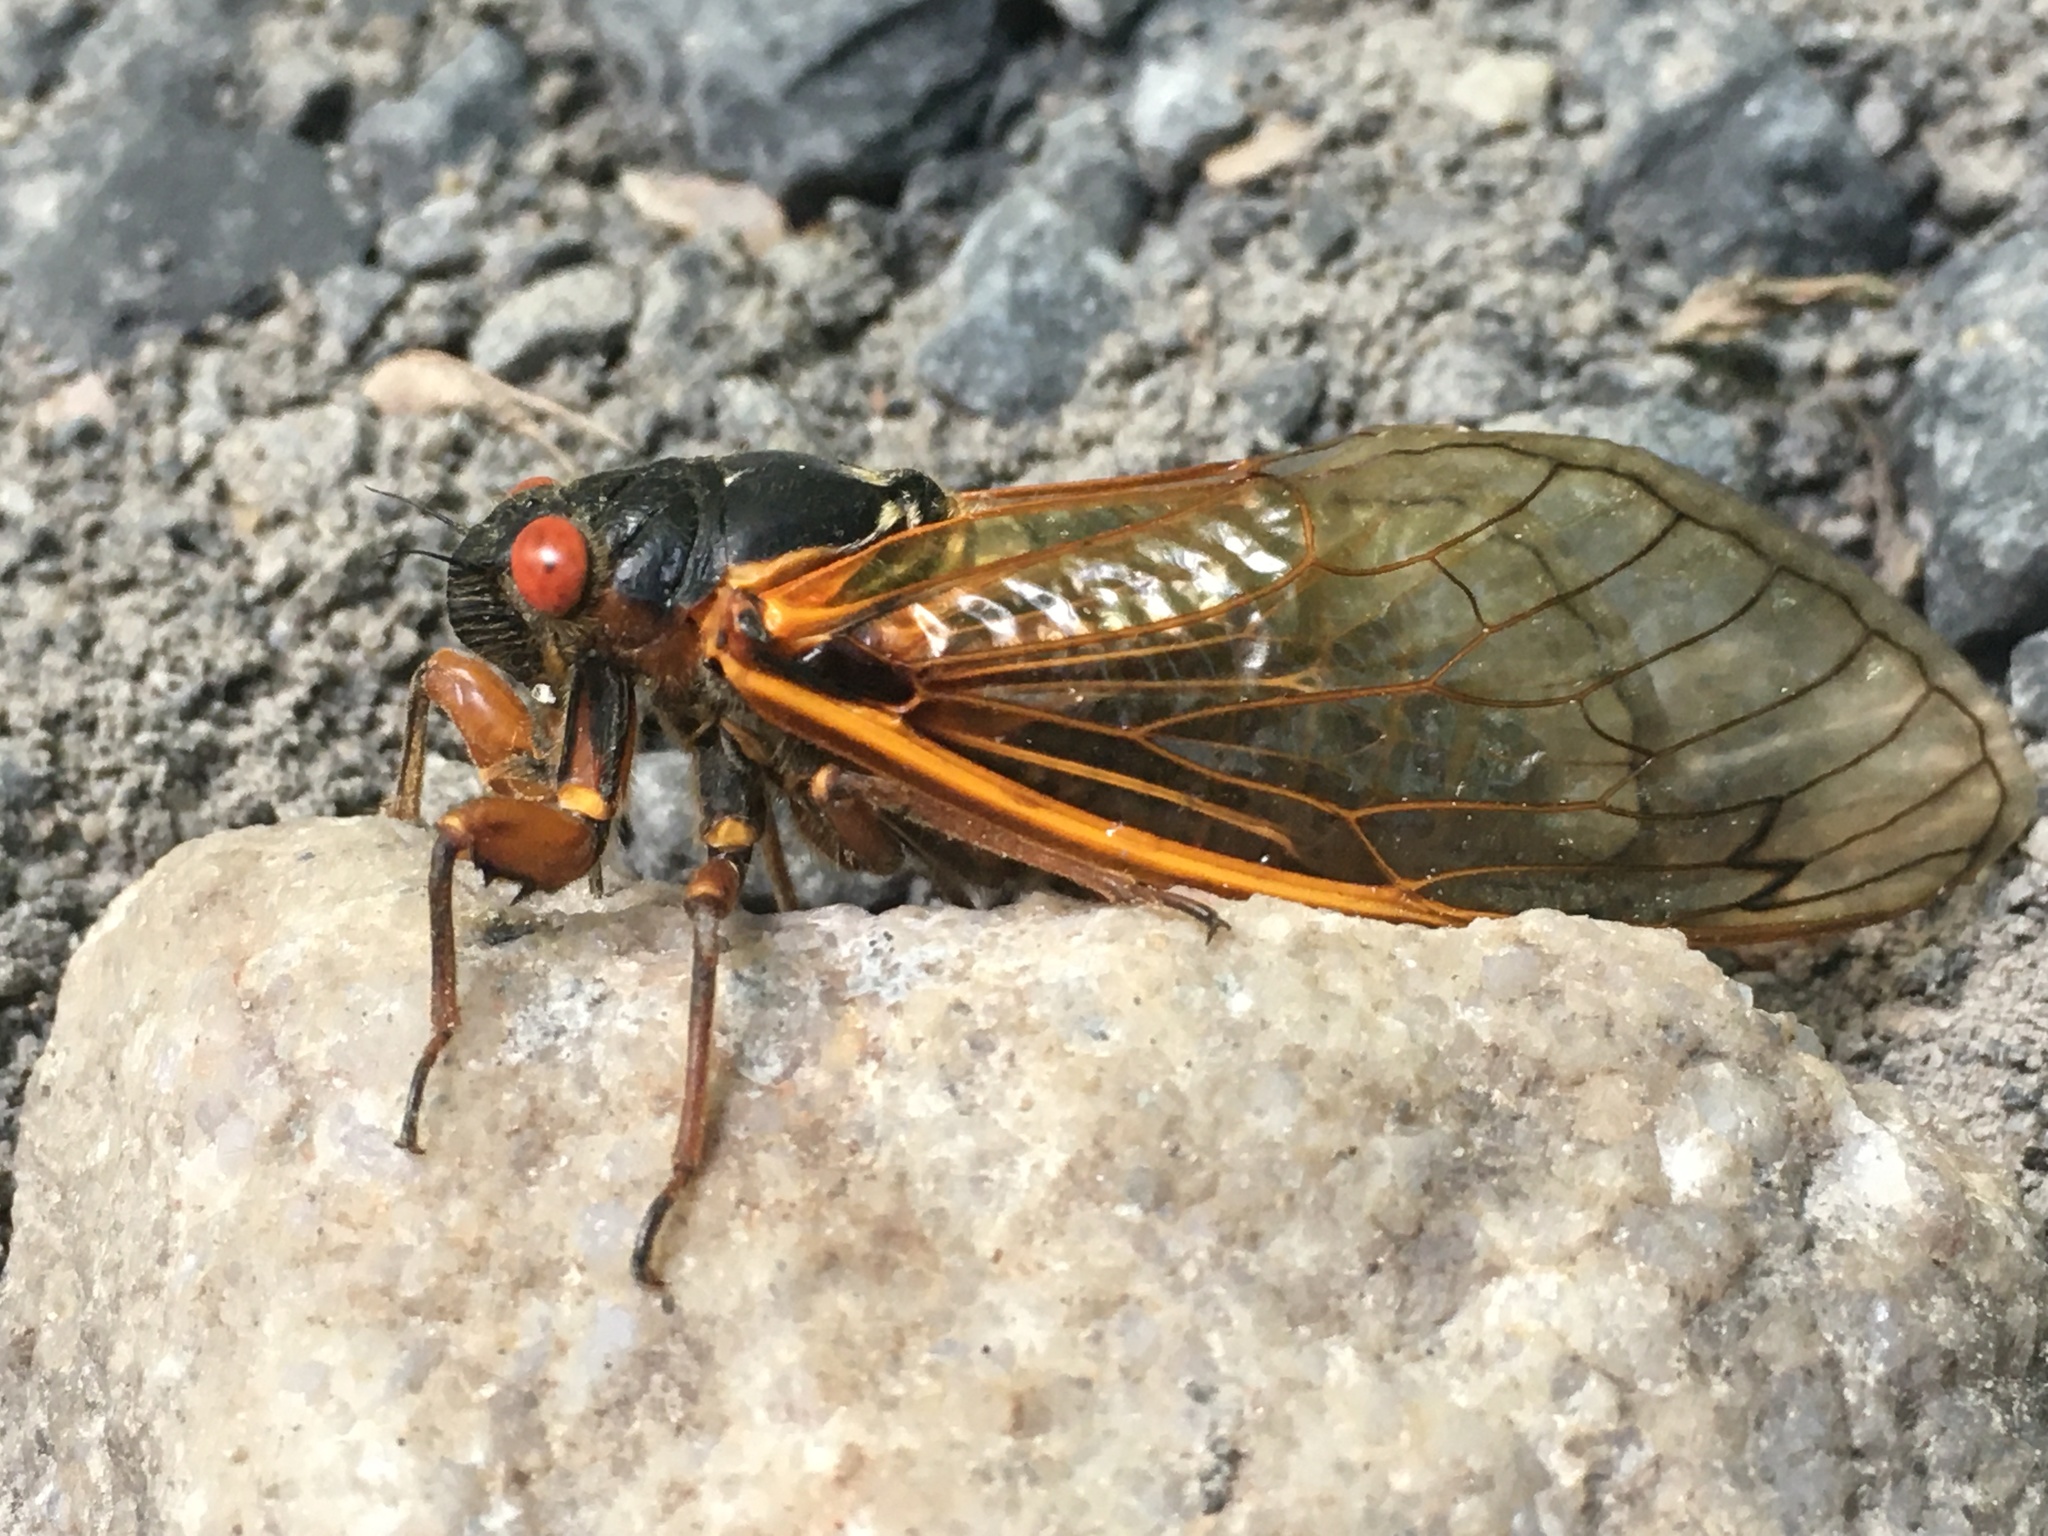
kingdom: Animalia
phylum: Arthropoda
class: Insecta
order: Hemiptera
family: Cicadidae
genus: Magicicada
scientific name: Magicicada septendecim
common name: Periodical cicada
